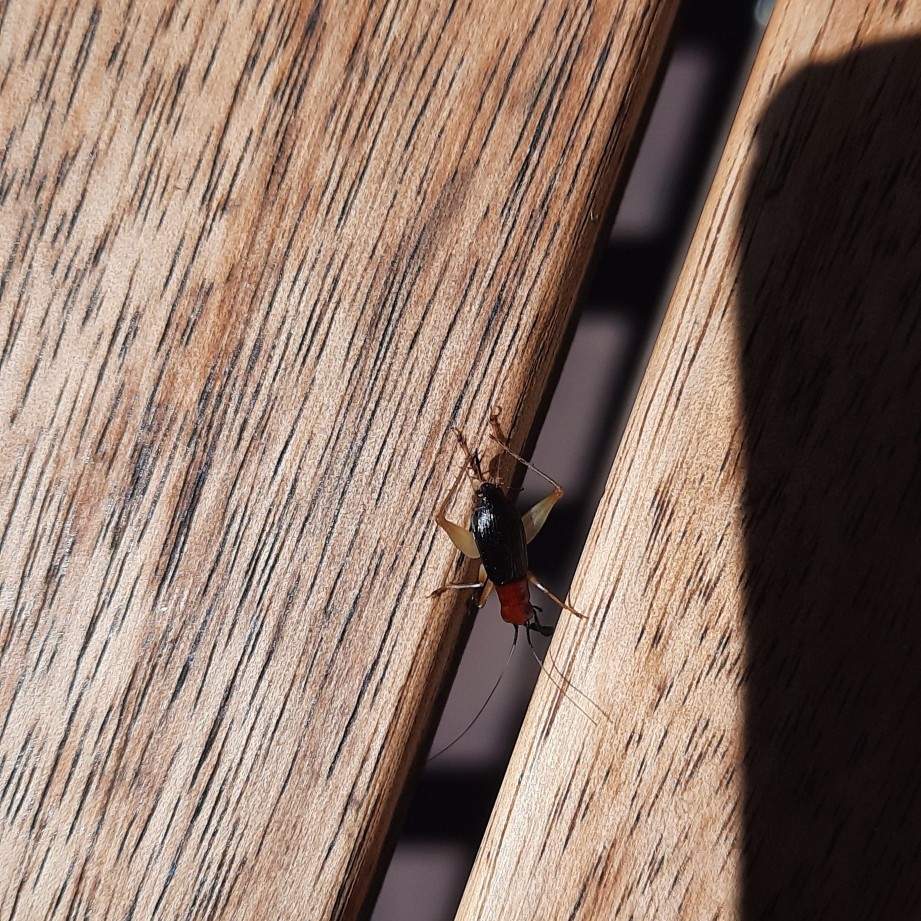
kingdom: Animalia
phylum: Arthropoda
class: Insecta
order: Orthoptera
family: Trigonidiidae
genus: Phyllopalpus
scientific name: Phyllopalpus pulchellus
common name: Handsome trig
